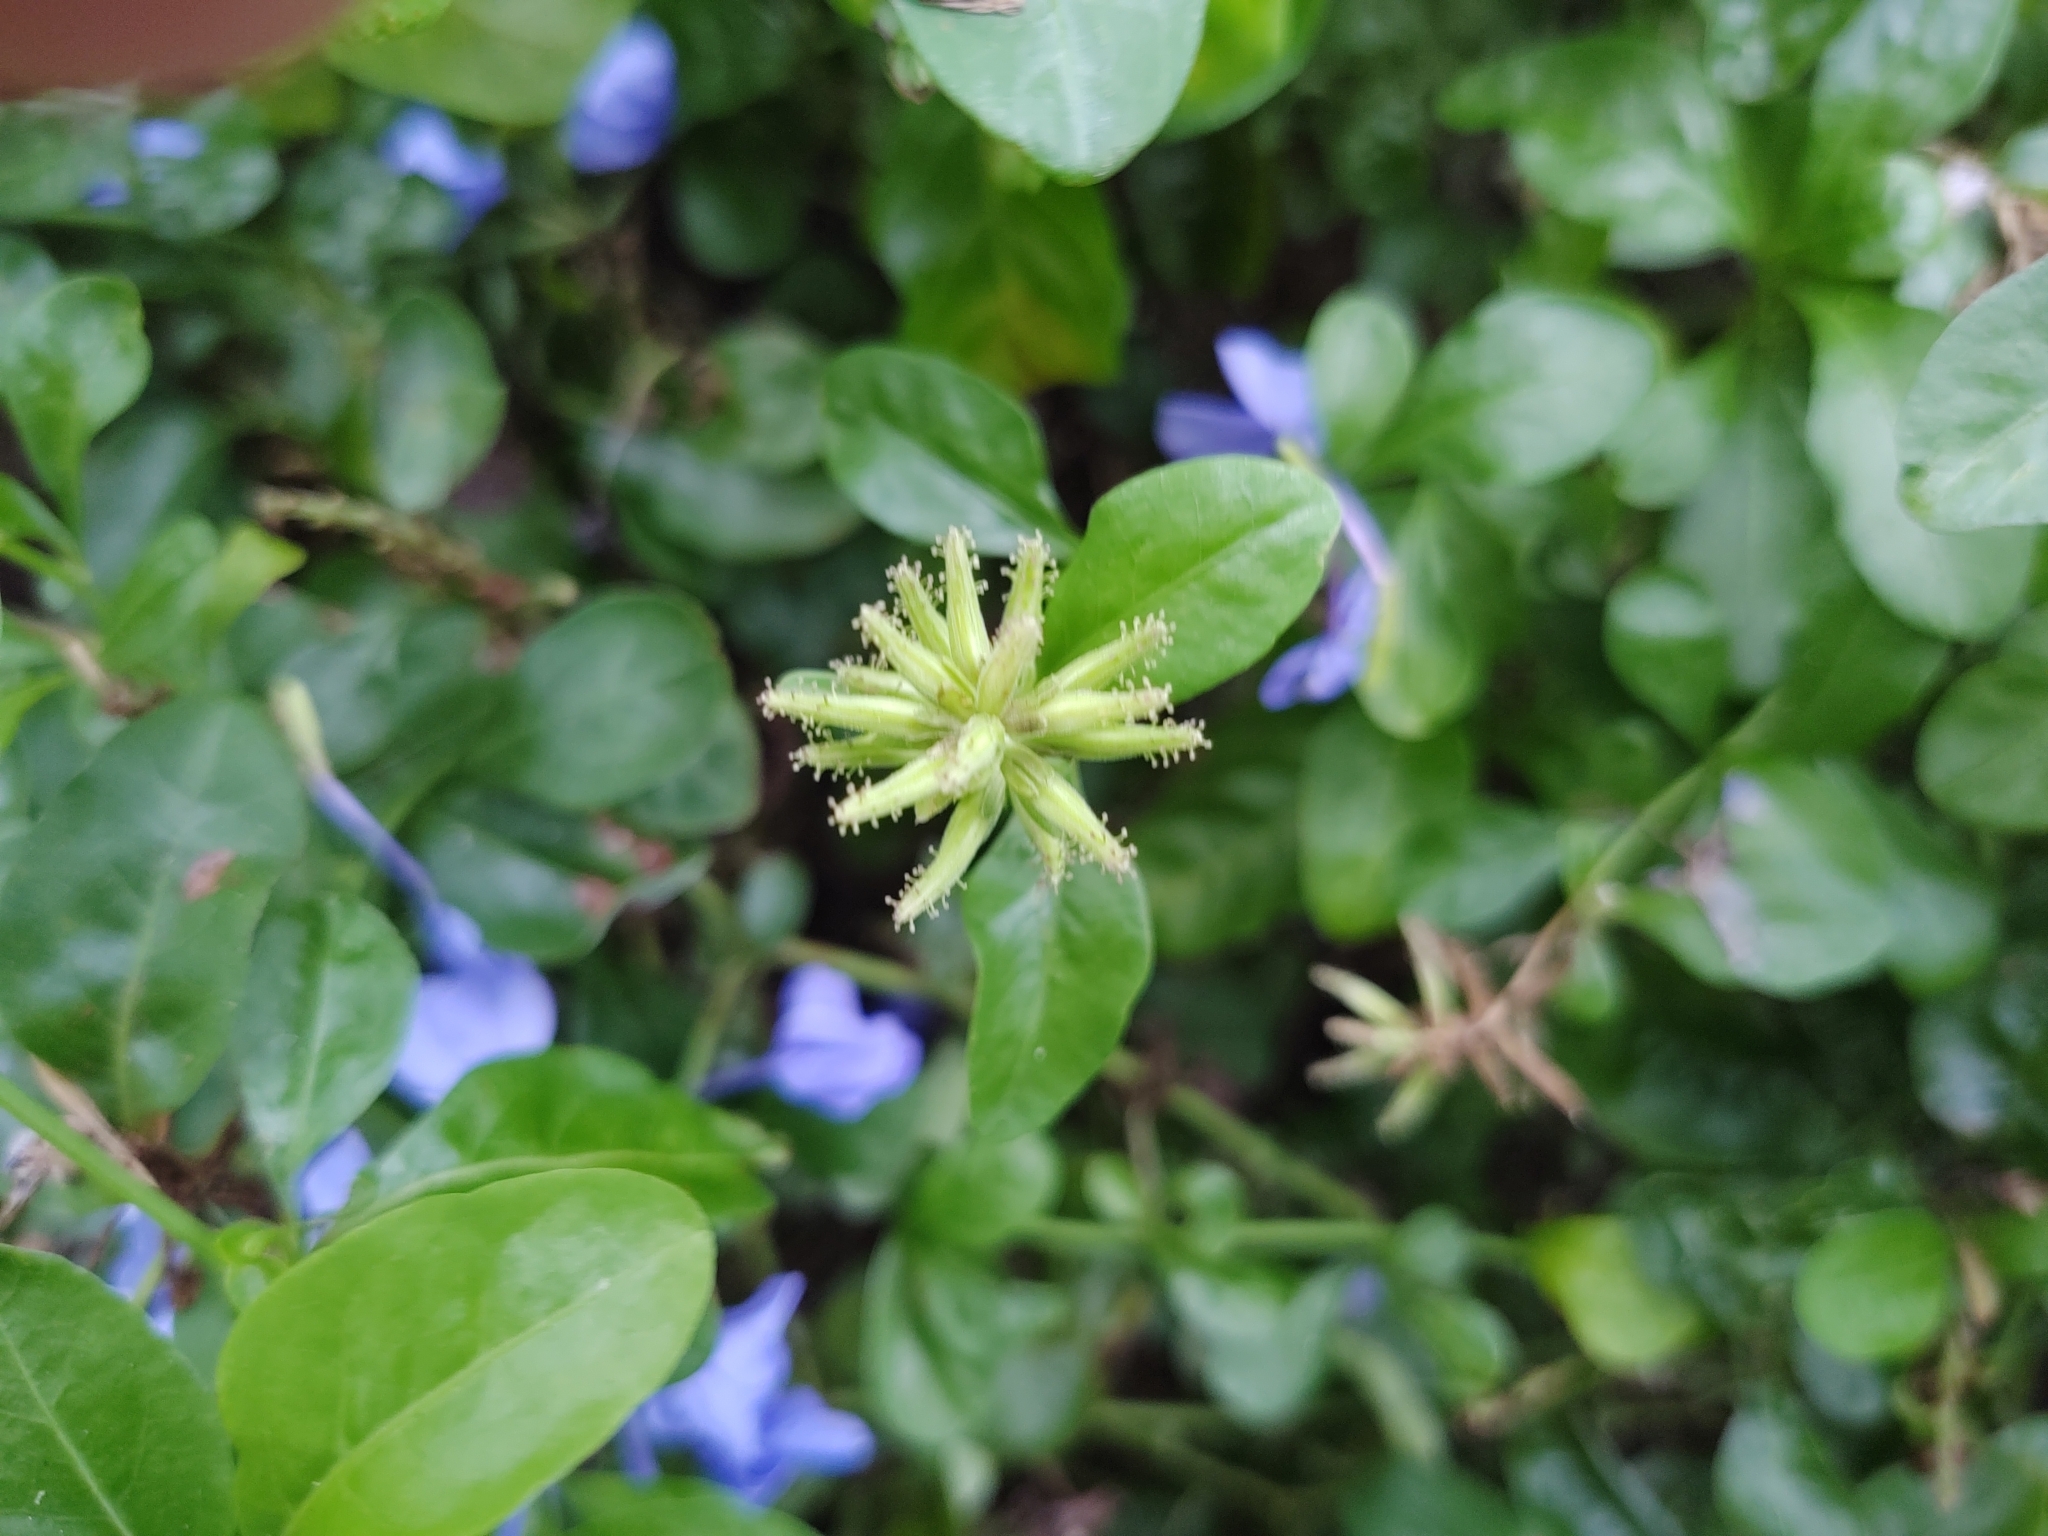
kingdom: Plantae
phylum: Tracheophyta
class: Magnoliopsida
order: Caryophyllales
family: Plumbaginaceae
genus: Plumbago
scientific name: Plumbago auriculata
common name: Cape leadwort
